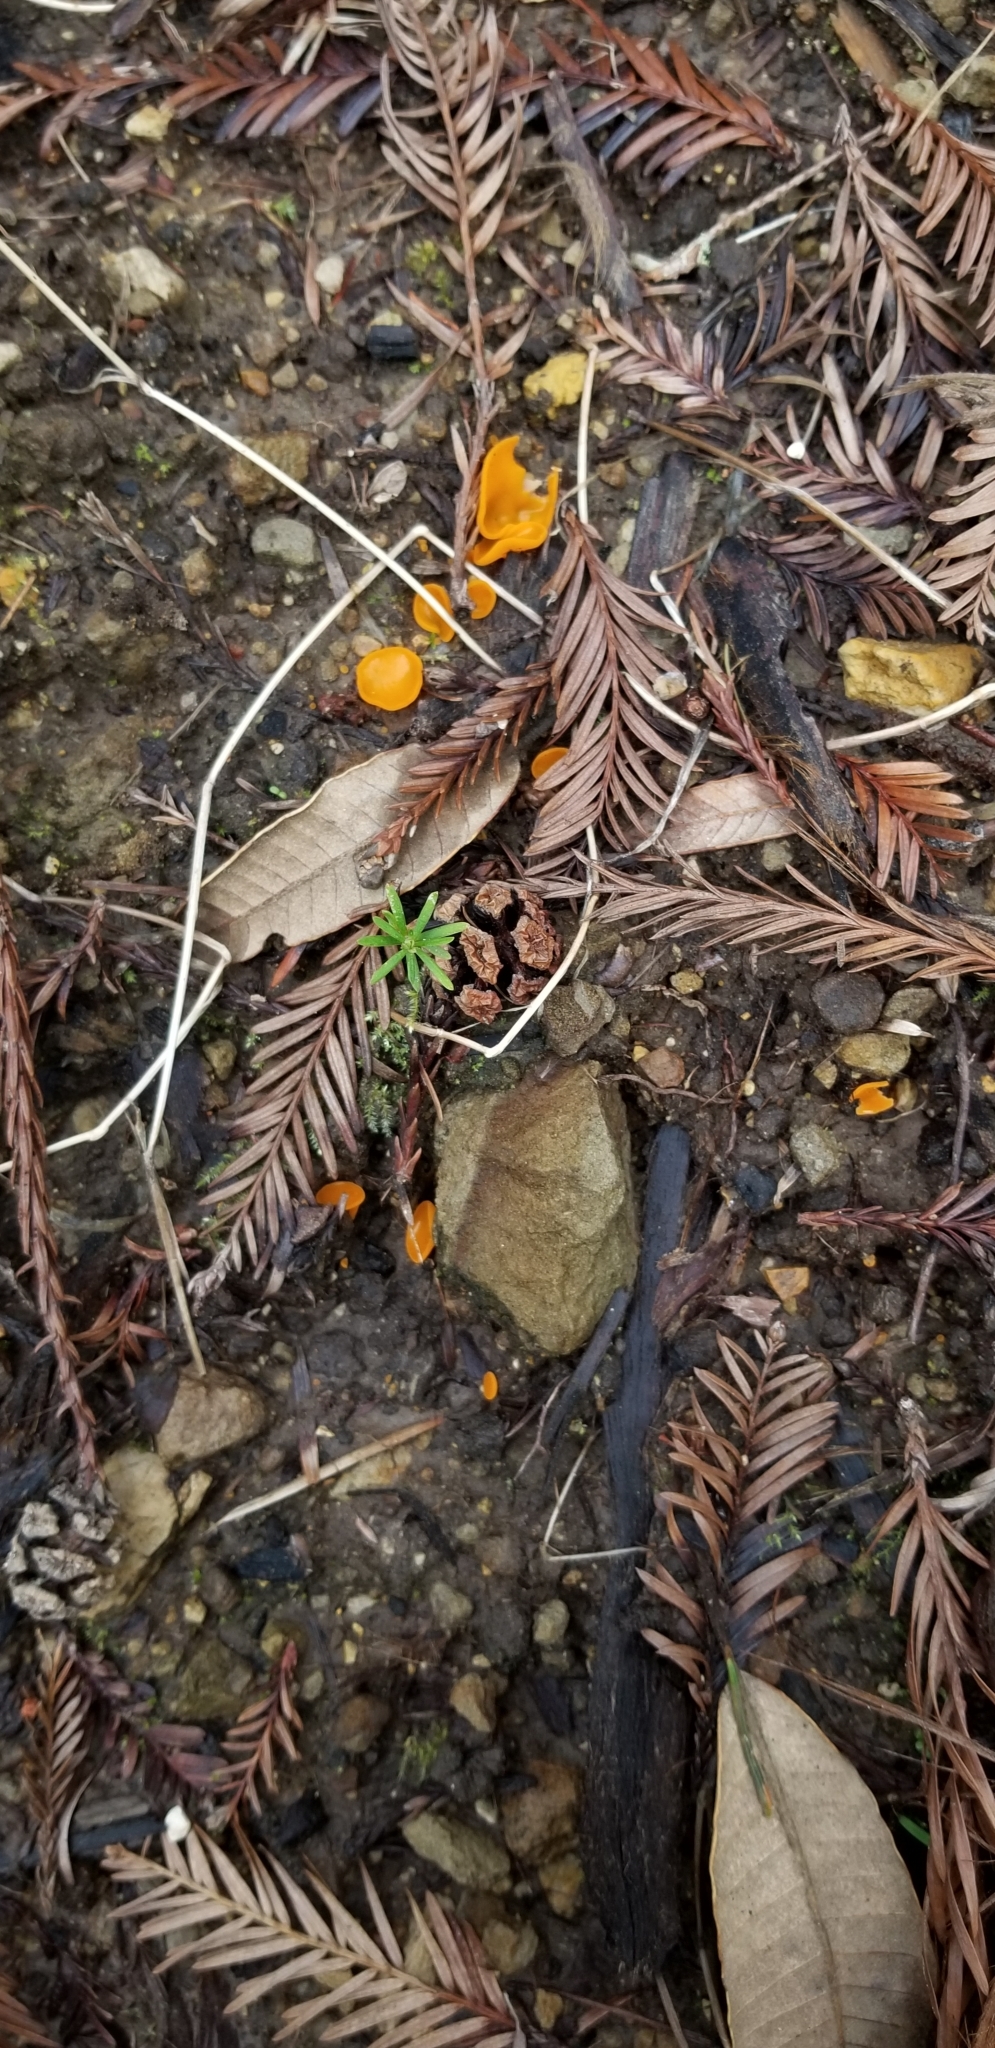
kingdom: Fungi
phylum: Ascomycota
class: Pezizomycetes
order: Pezizales
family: Pyronemataceae
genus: Aleuria
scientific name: Aleuria aurantia
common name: Orange peel fungus
